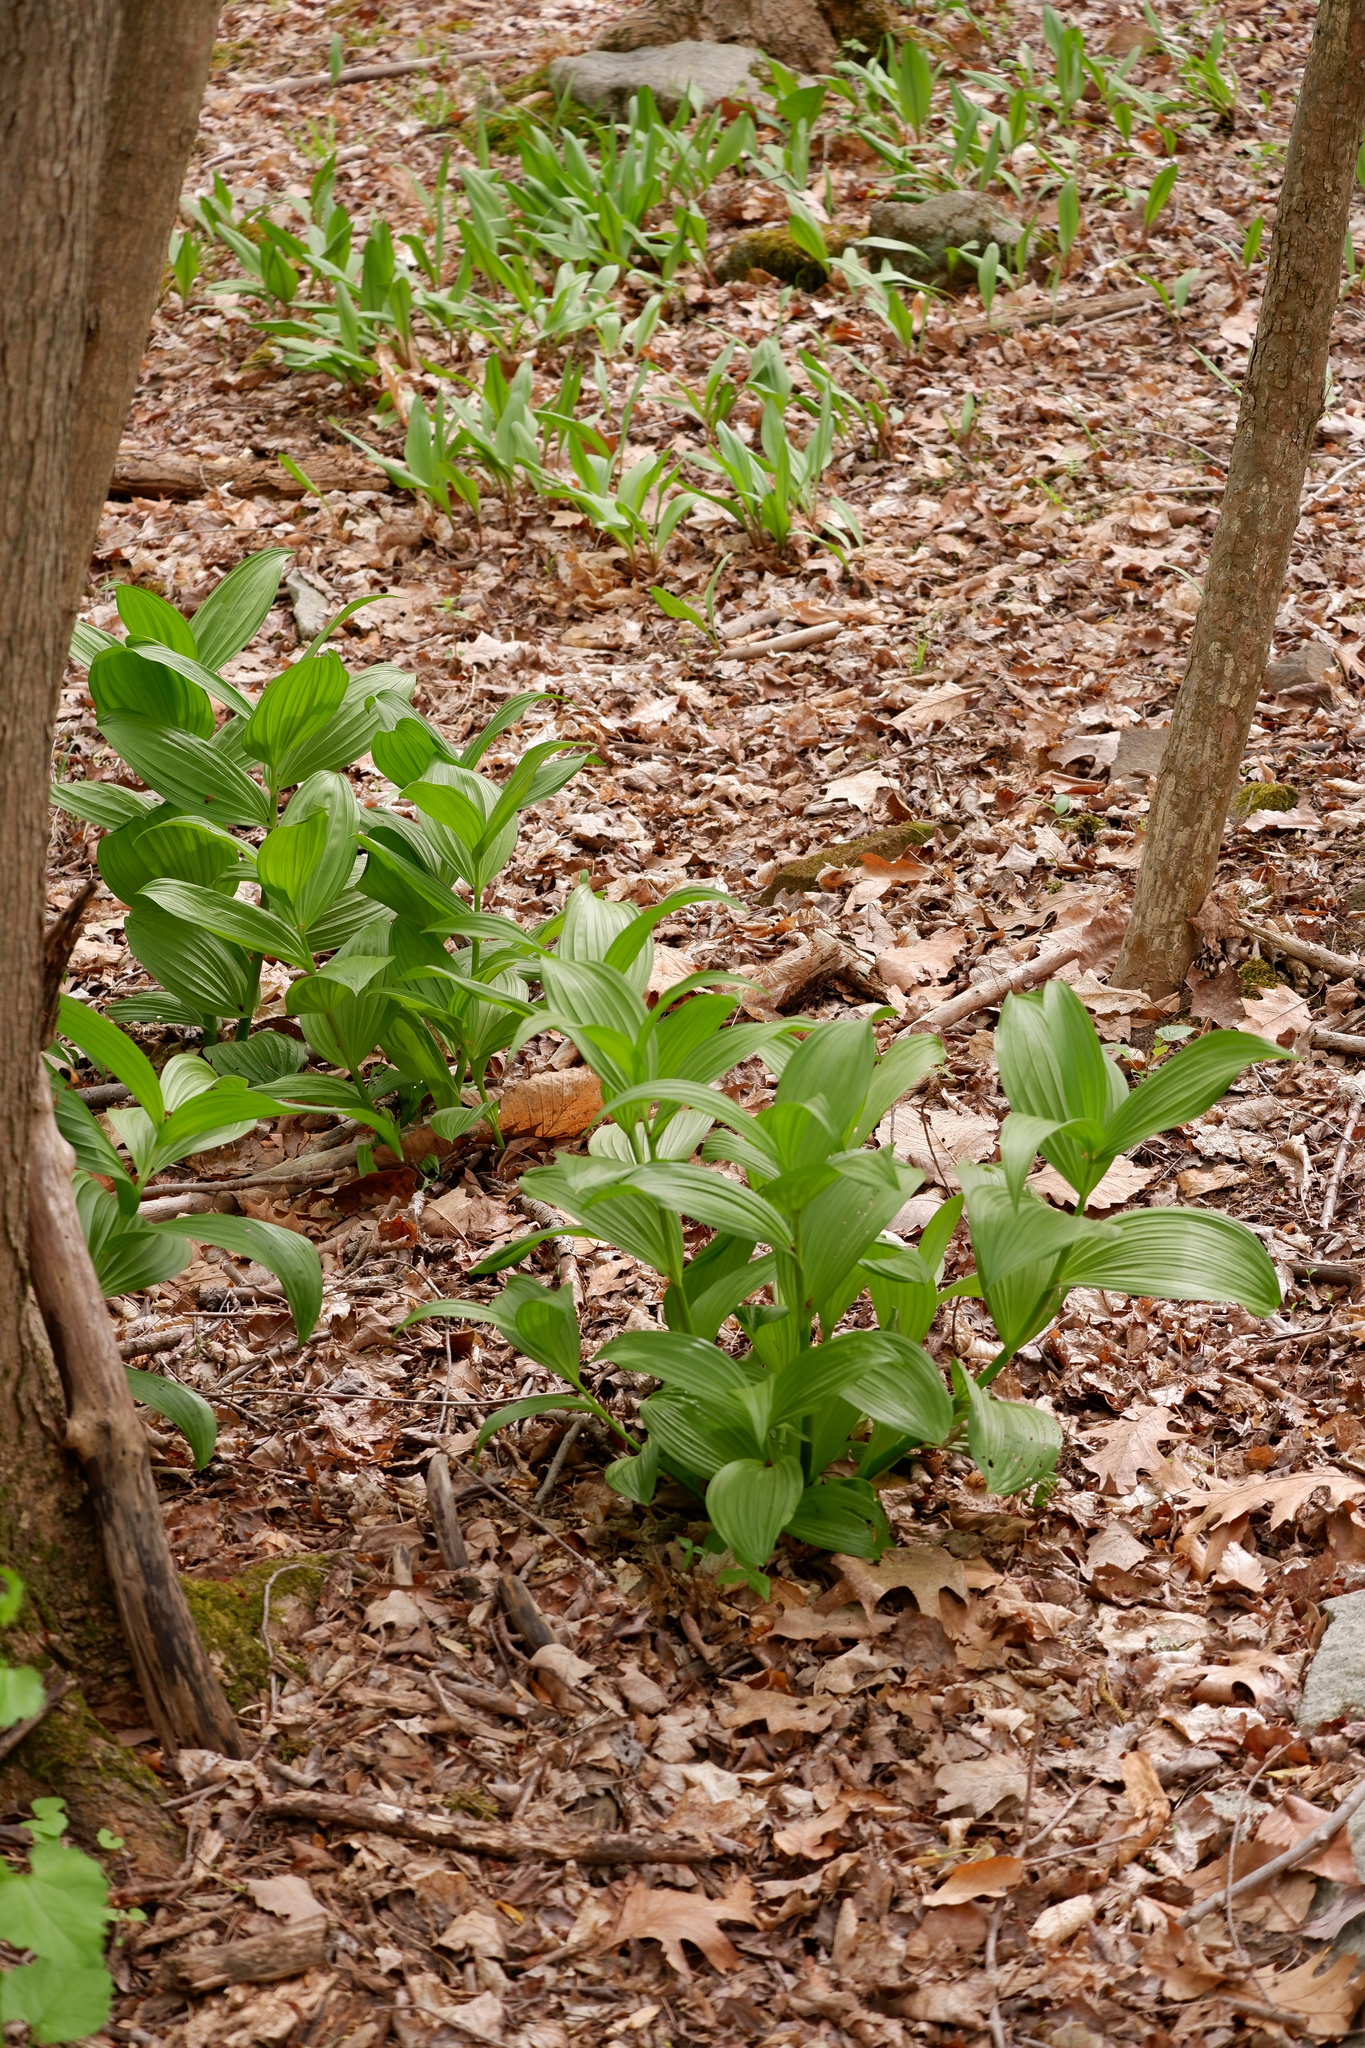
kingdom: Plantae
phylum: Tracheophyta
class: Liliopsida
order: Liliales
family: Melanthiaceae
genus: Veratrum
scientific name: Veratrum viride
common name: American false hellebore
